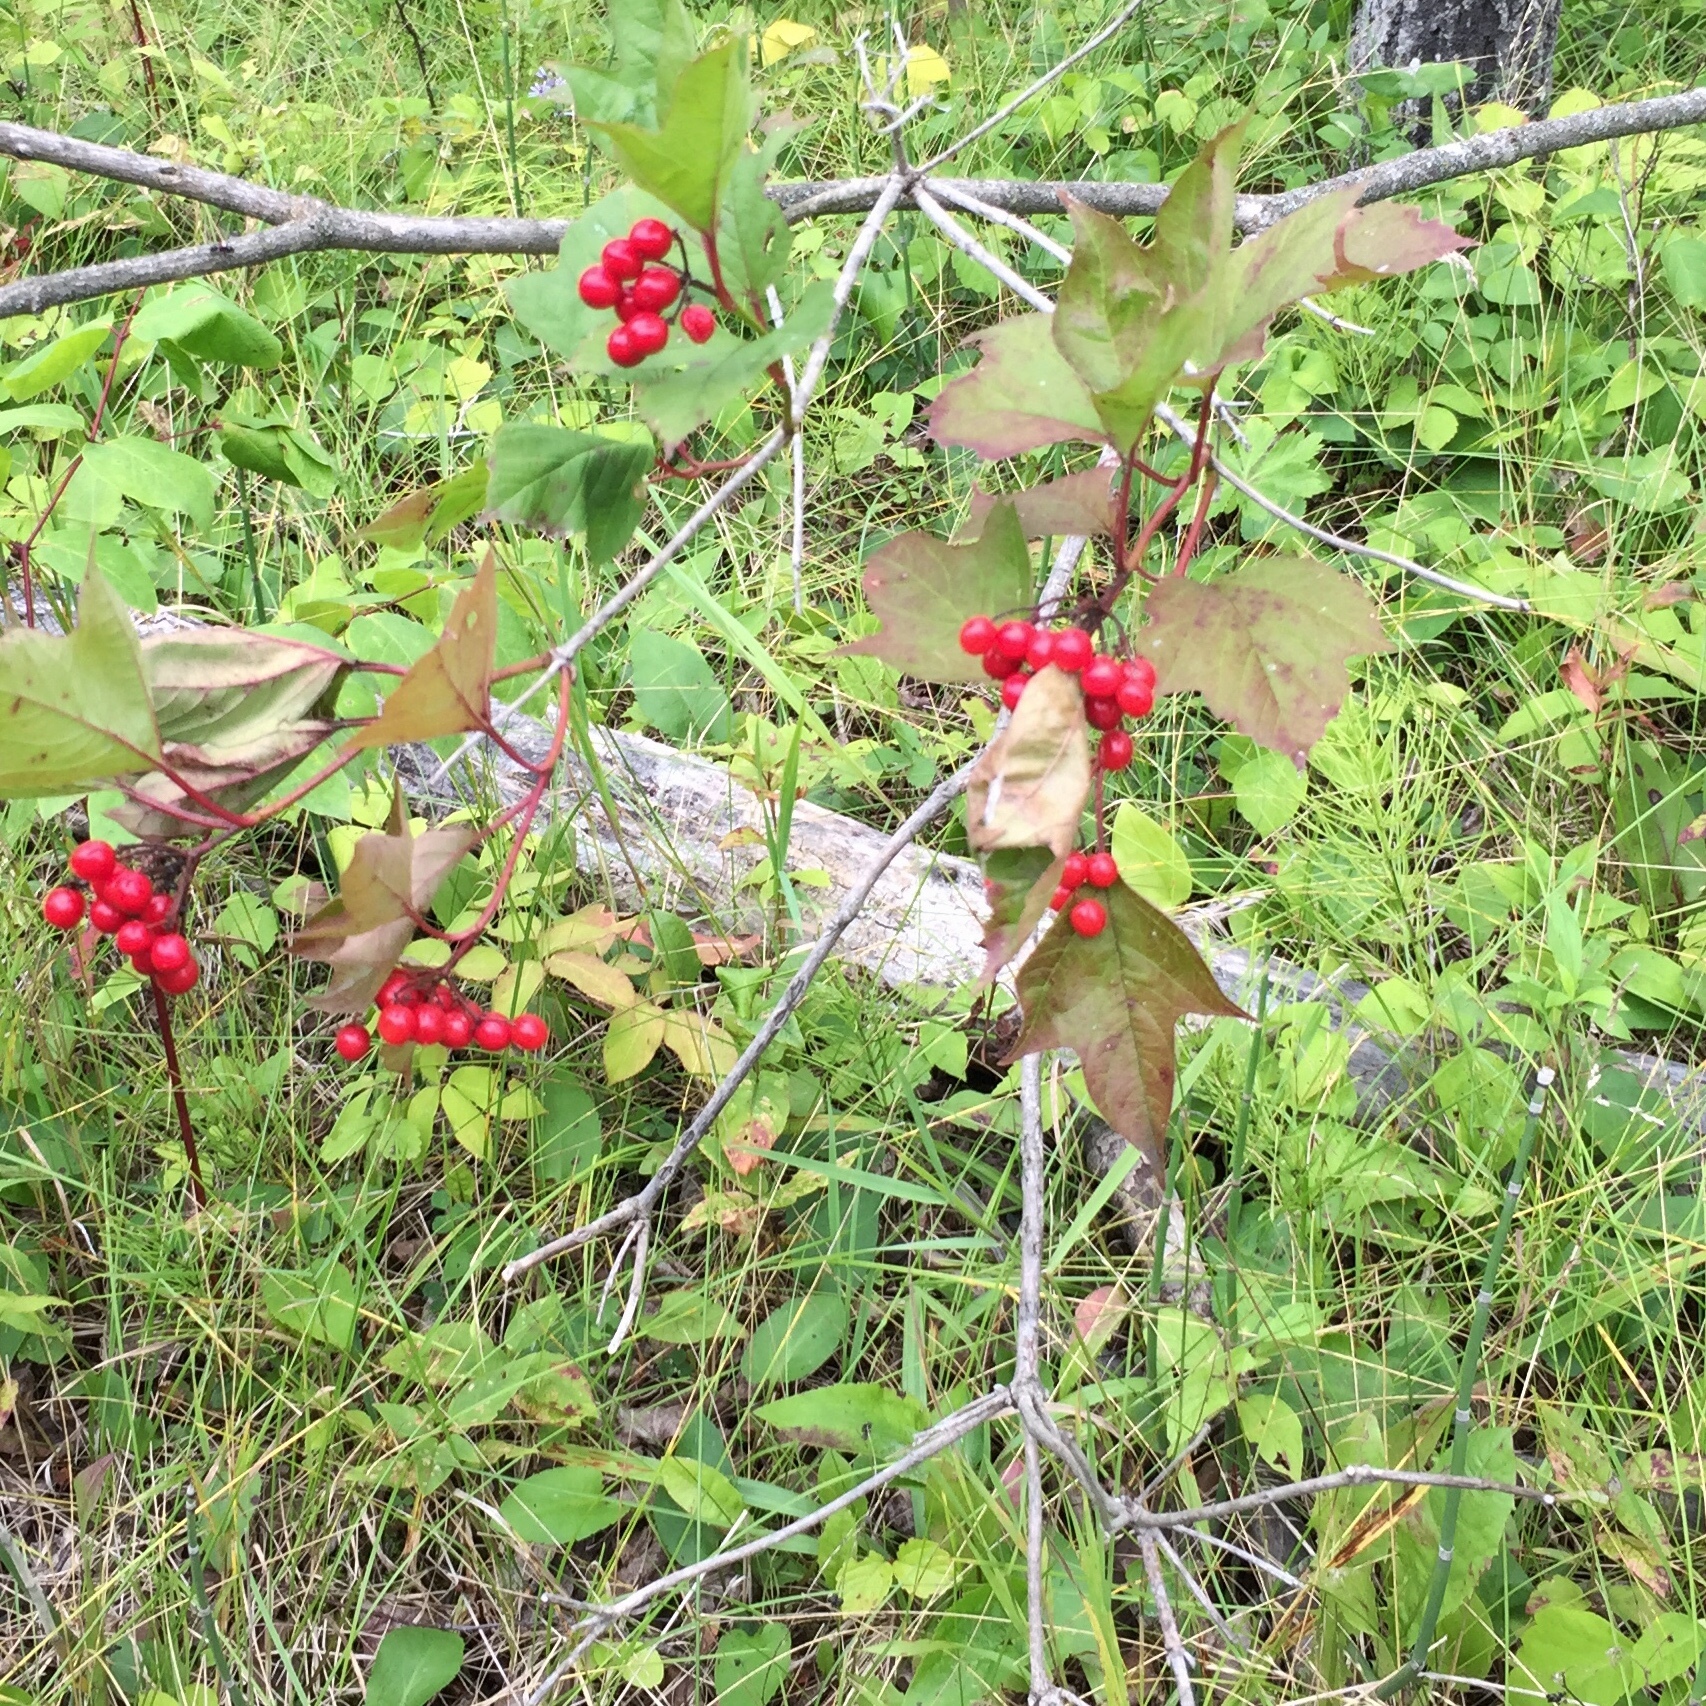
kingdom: Plantae
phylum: Tracheophyta
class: Magnoliopsida
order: Dipsacales
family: Viburnaceae
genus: Viburnum
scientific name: Viburnum trilobum
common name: American cranberrybush
